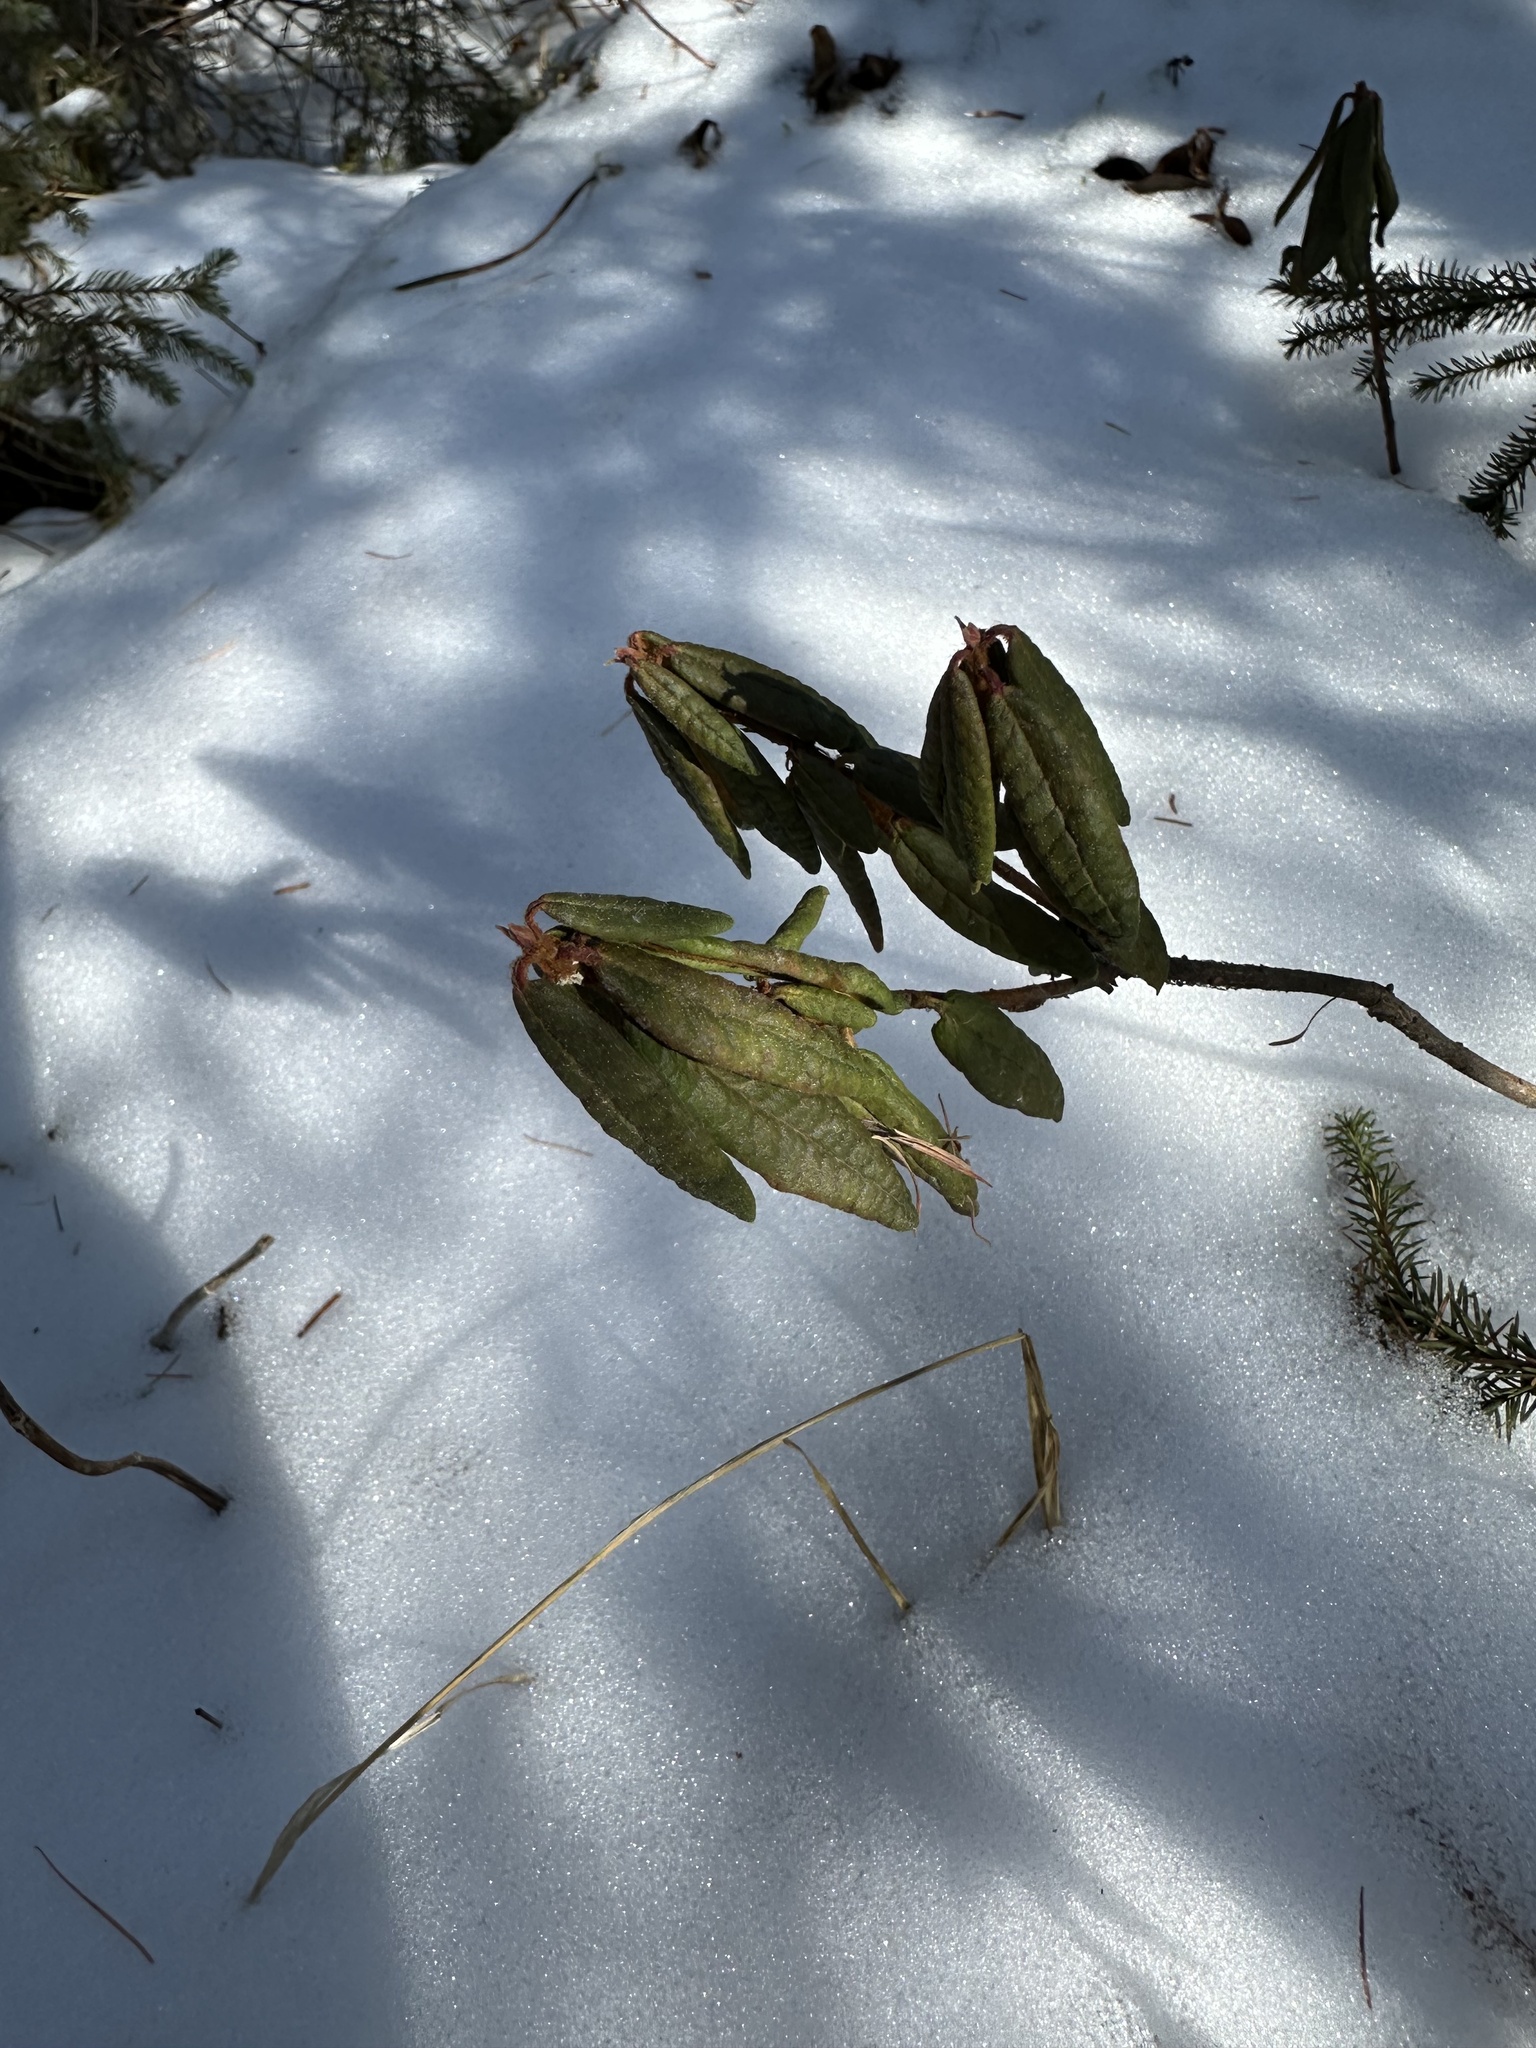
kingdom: Plantae
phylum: Tracheophyta
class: Magnoliopsida
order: Ericales
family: Ericaceae
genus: Rhododendron
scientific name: Rhododendron groenlandicum
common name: Bog labrador tea
